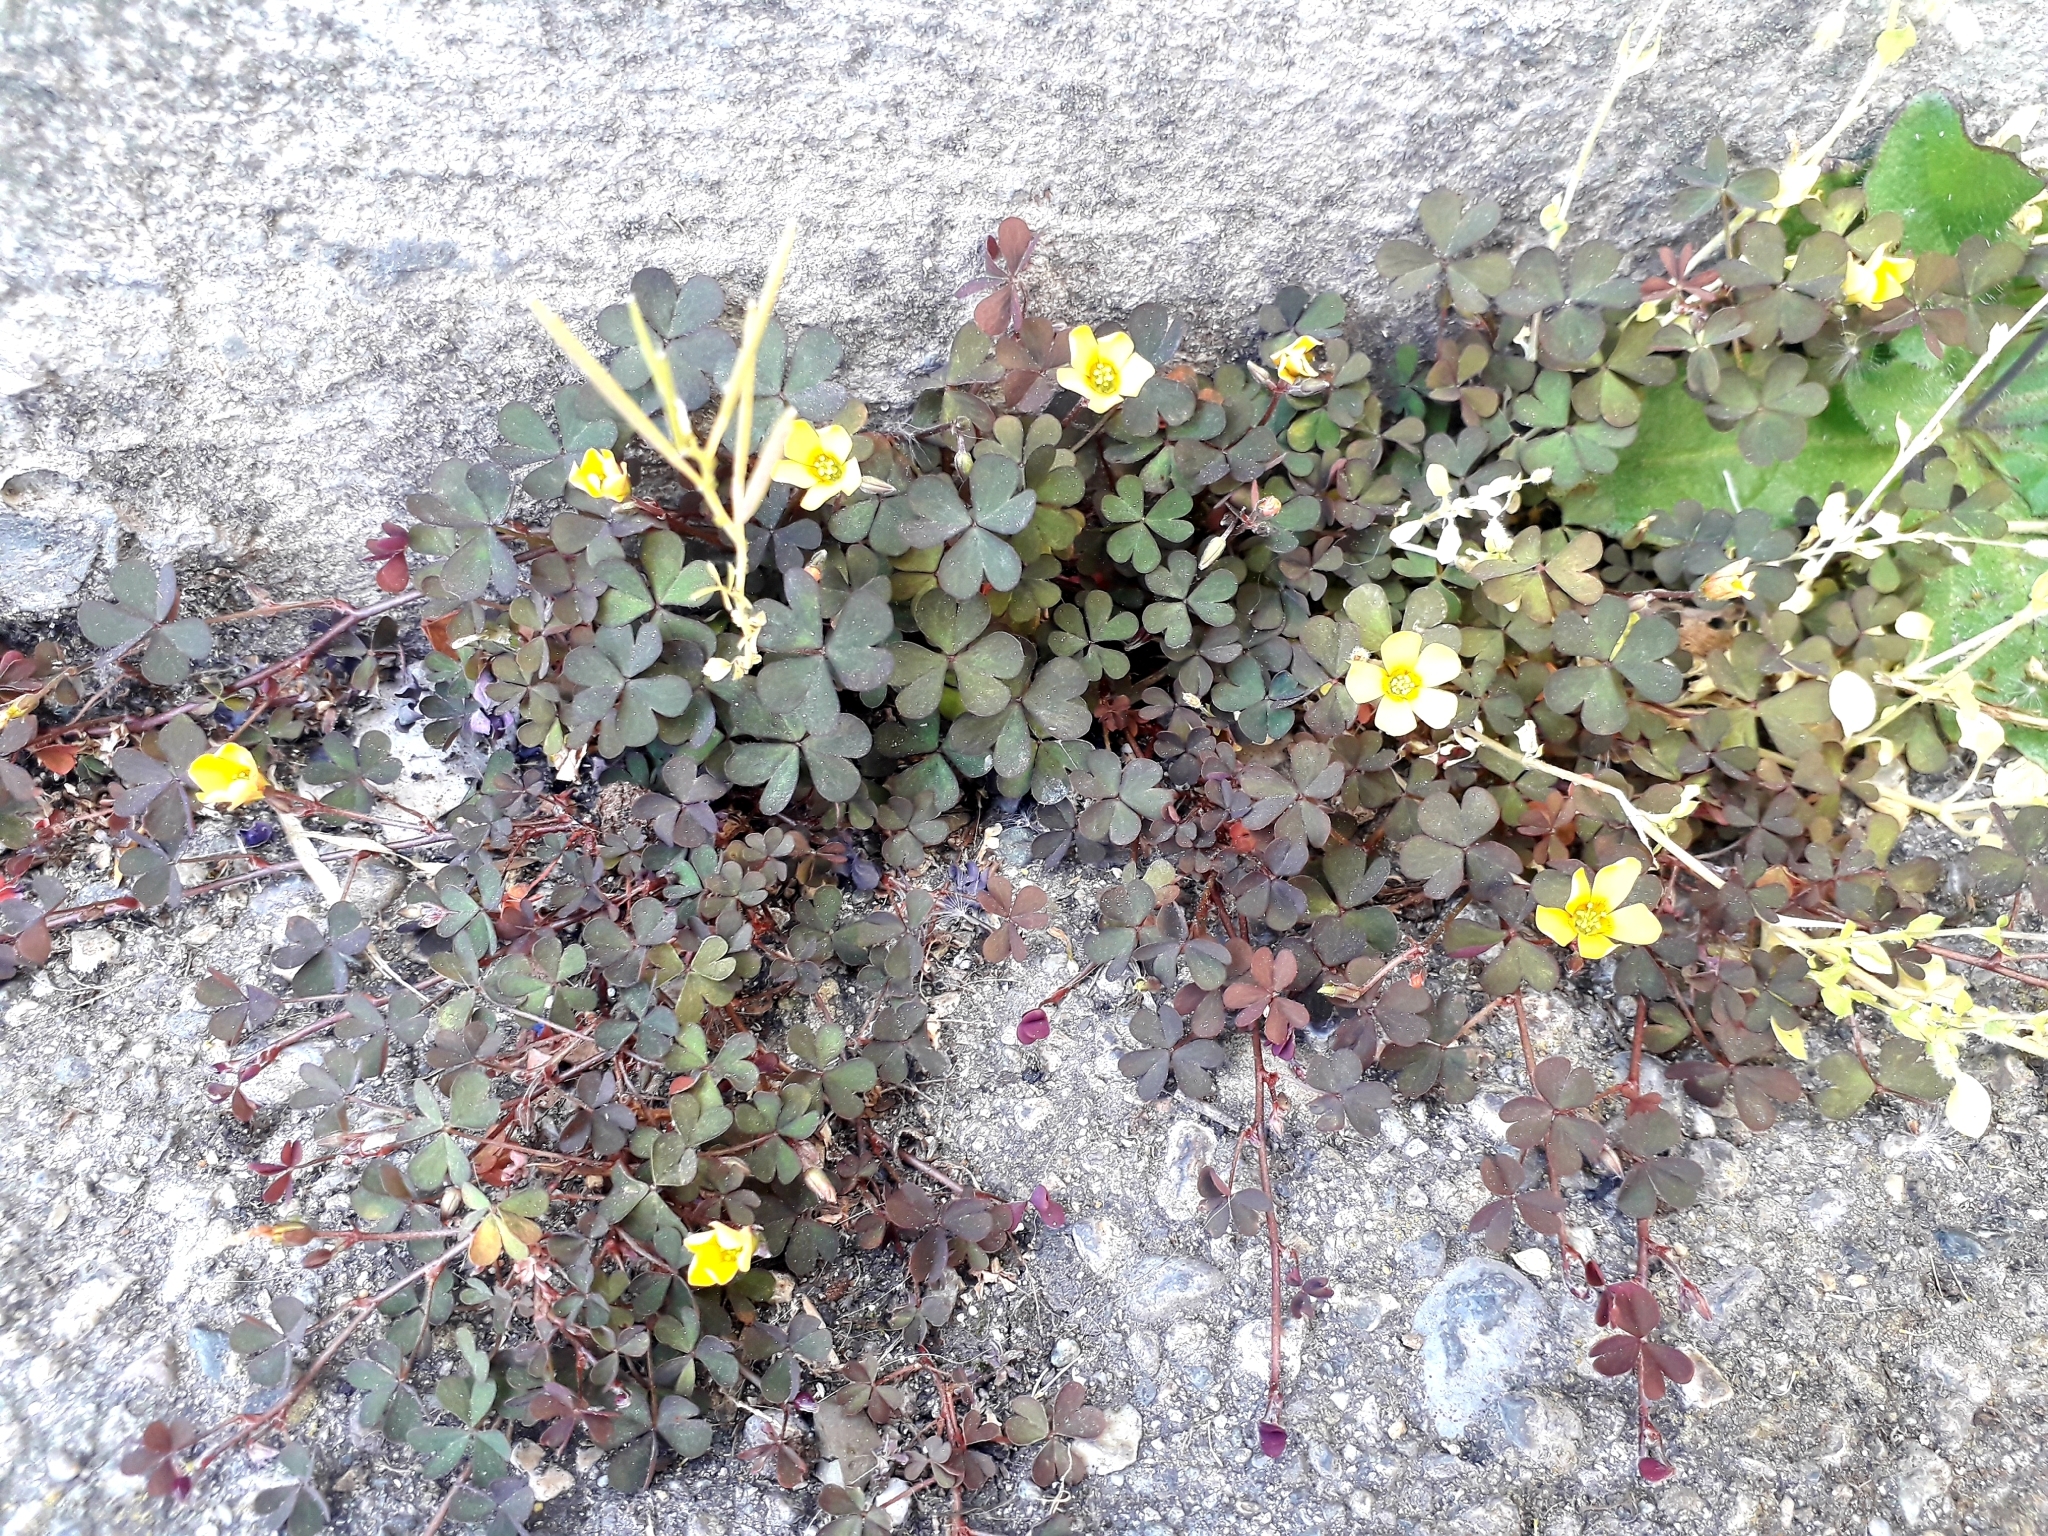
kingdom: Plantae
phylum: Tracheophyta
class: Magnoliopsida
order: Oxalidales
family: Oxalidaceae
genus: Oxalis
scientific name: Oxalis corniculata
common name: Procumbent yellow-sorrel
